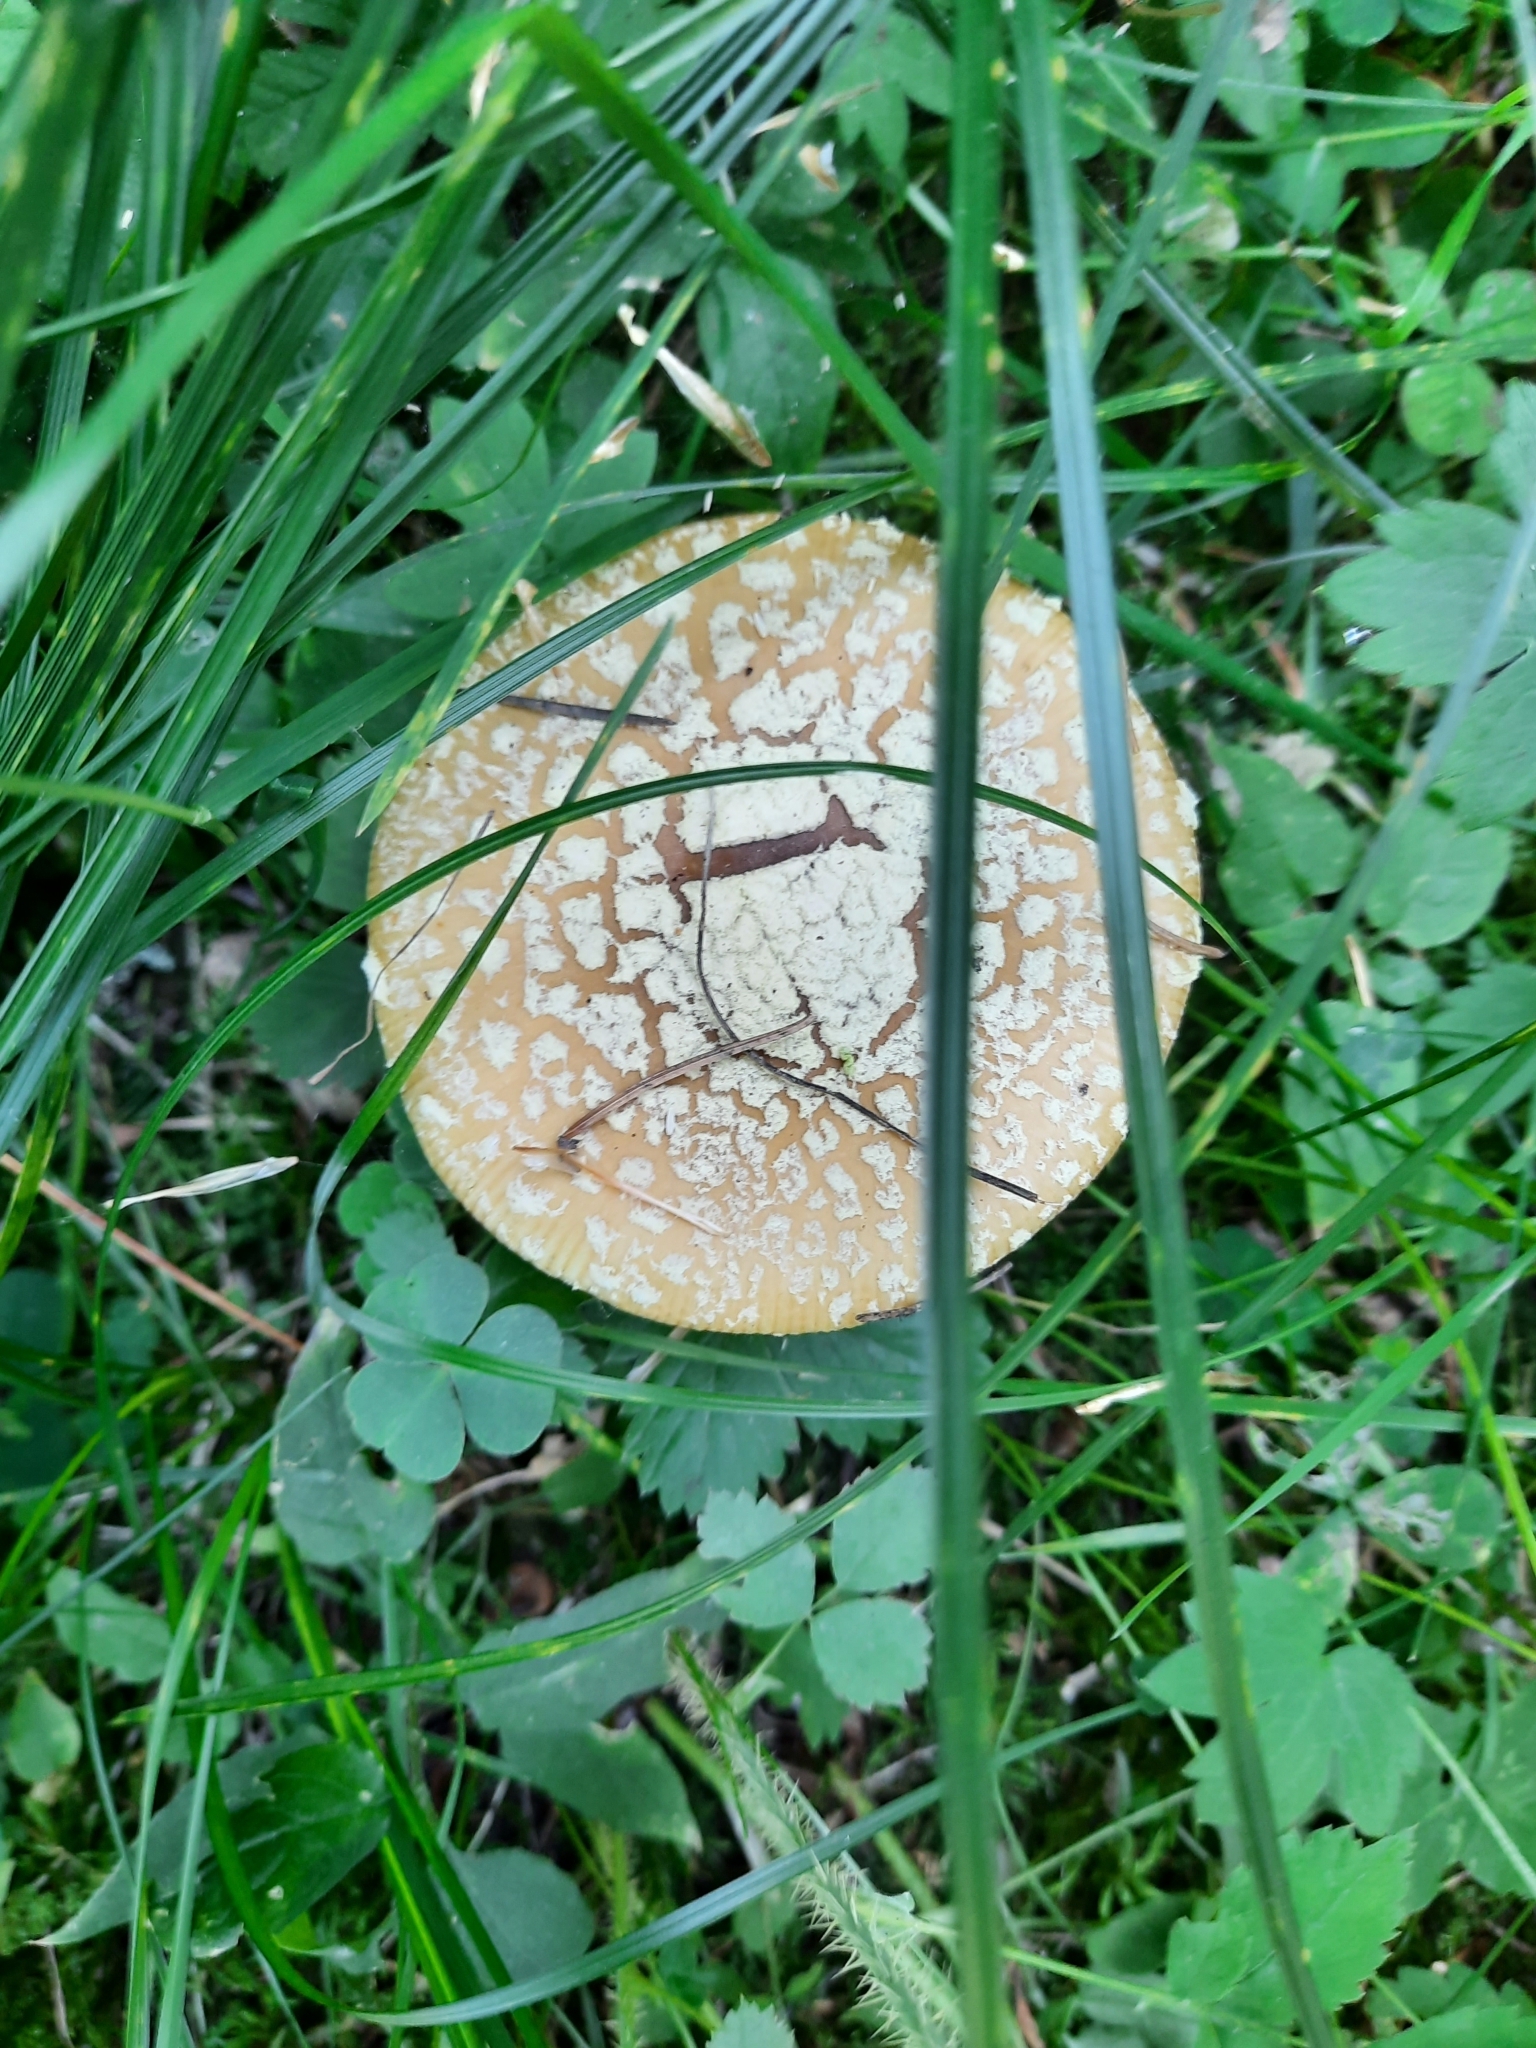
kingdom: Fungi
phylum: Basidiomycota
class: Agaricomycetes
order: Agaricales
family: Amanitaceae
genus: Amanita
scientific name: Amanita regalis
